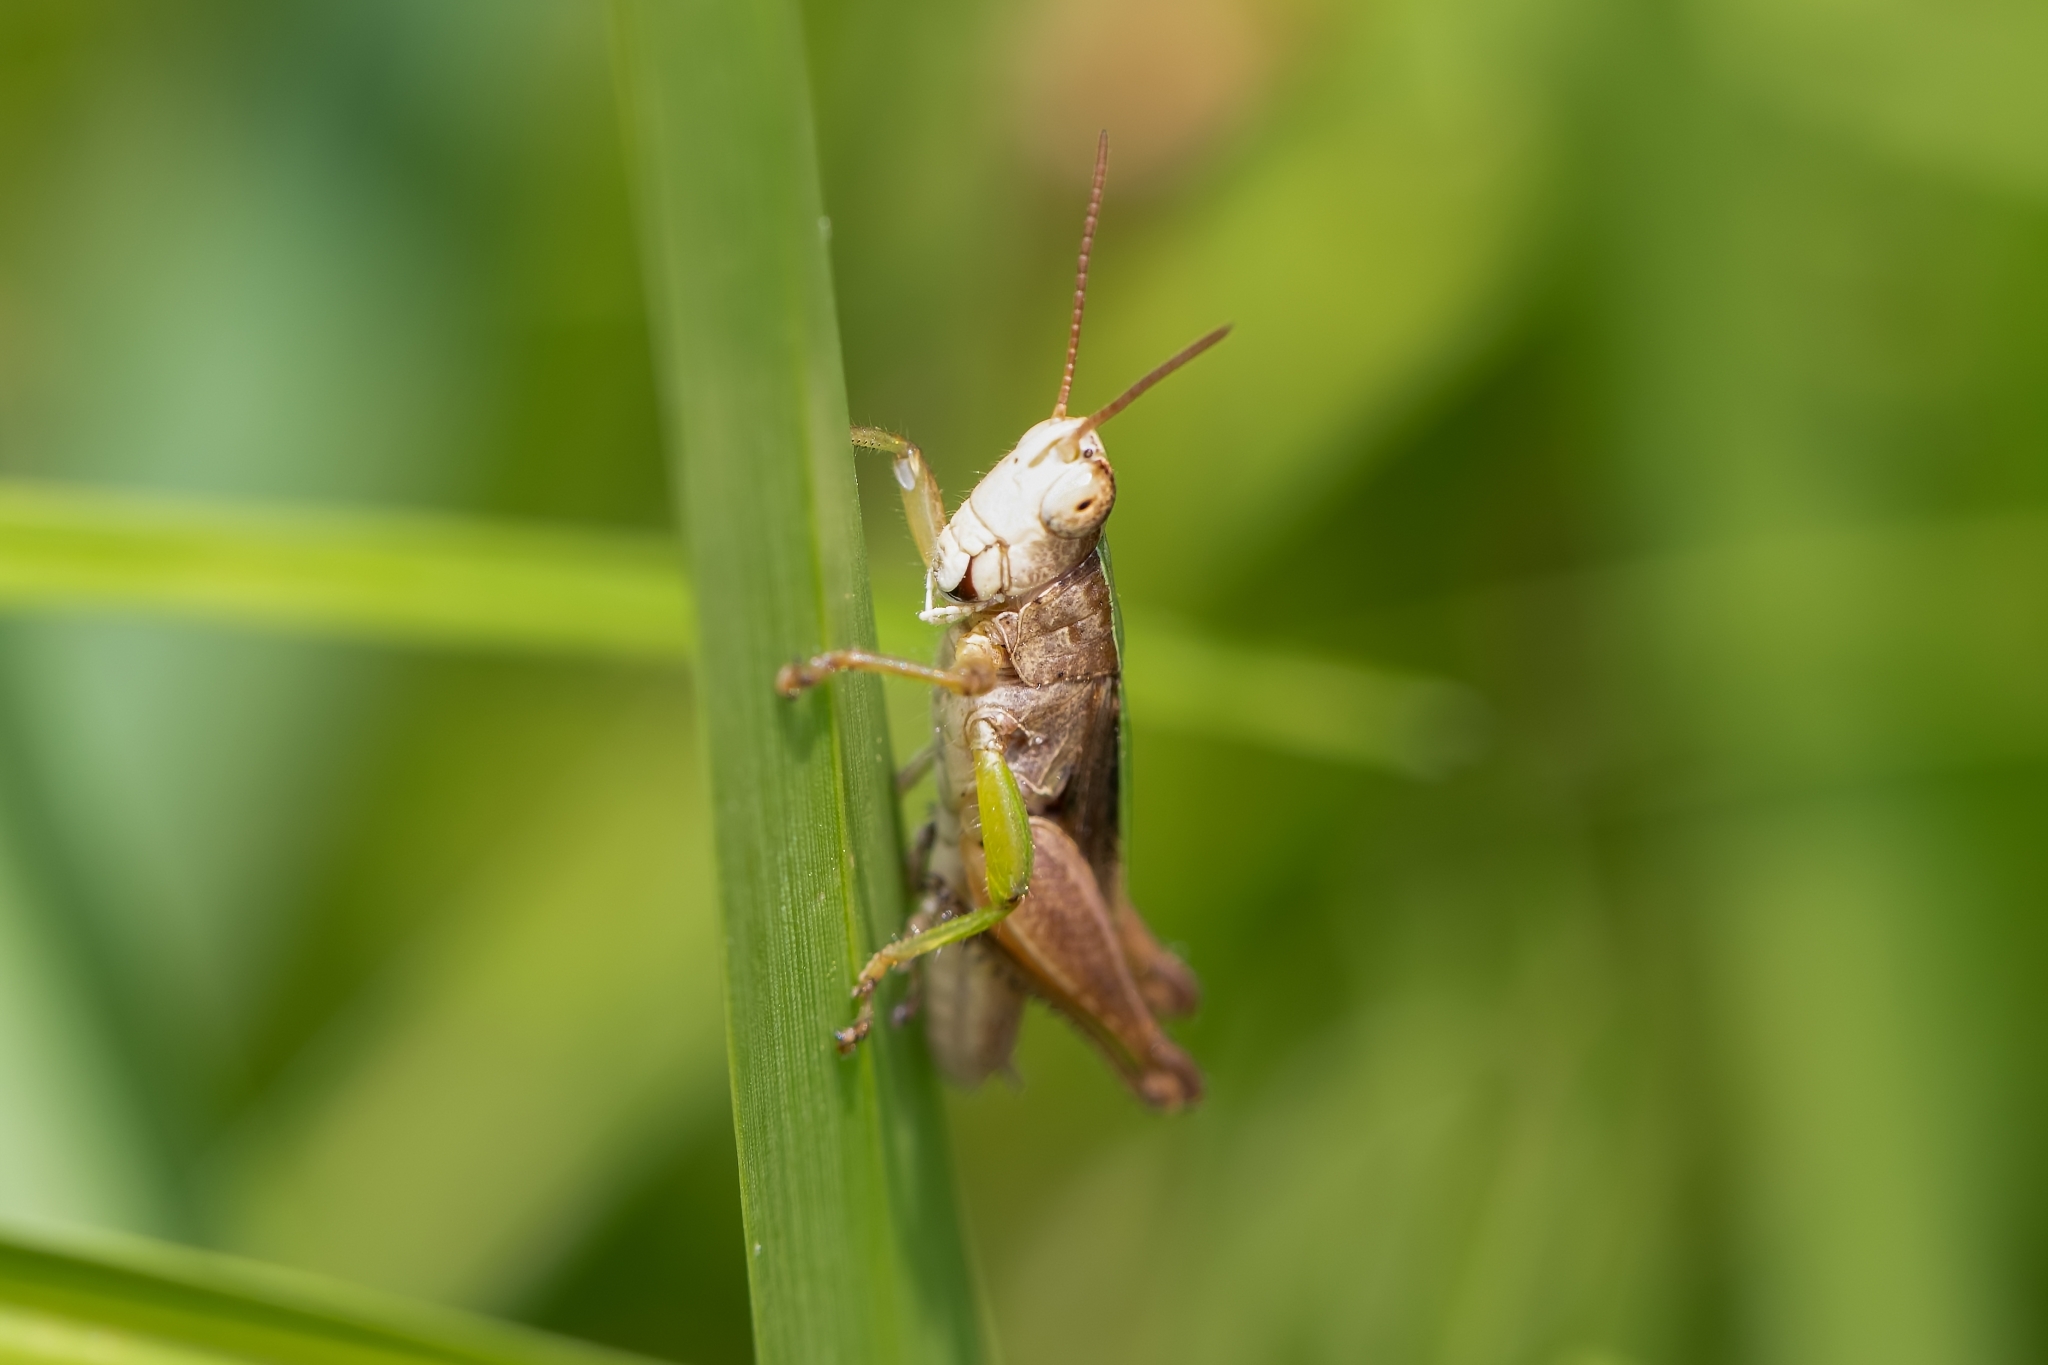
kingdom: Animalia
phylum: Arthropoda
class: Insecta
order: Orthoptera
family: Acrididae
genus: Dichromorpha
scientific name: Dichromorpha viridis
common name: Short-winged green grasshopper
